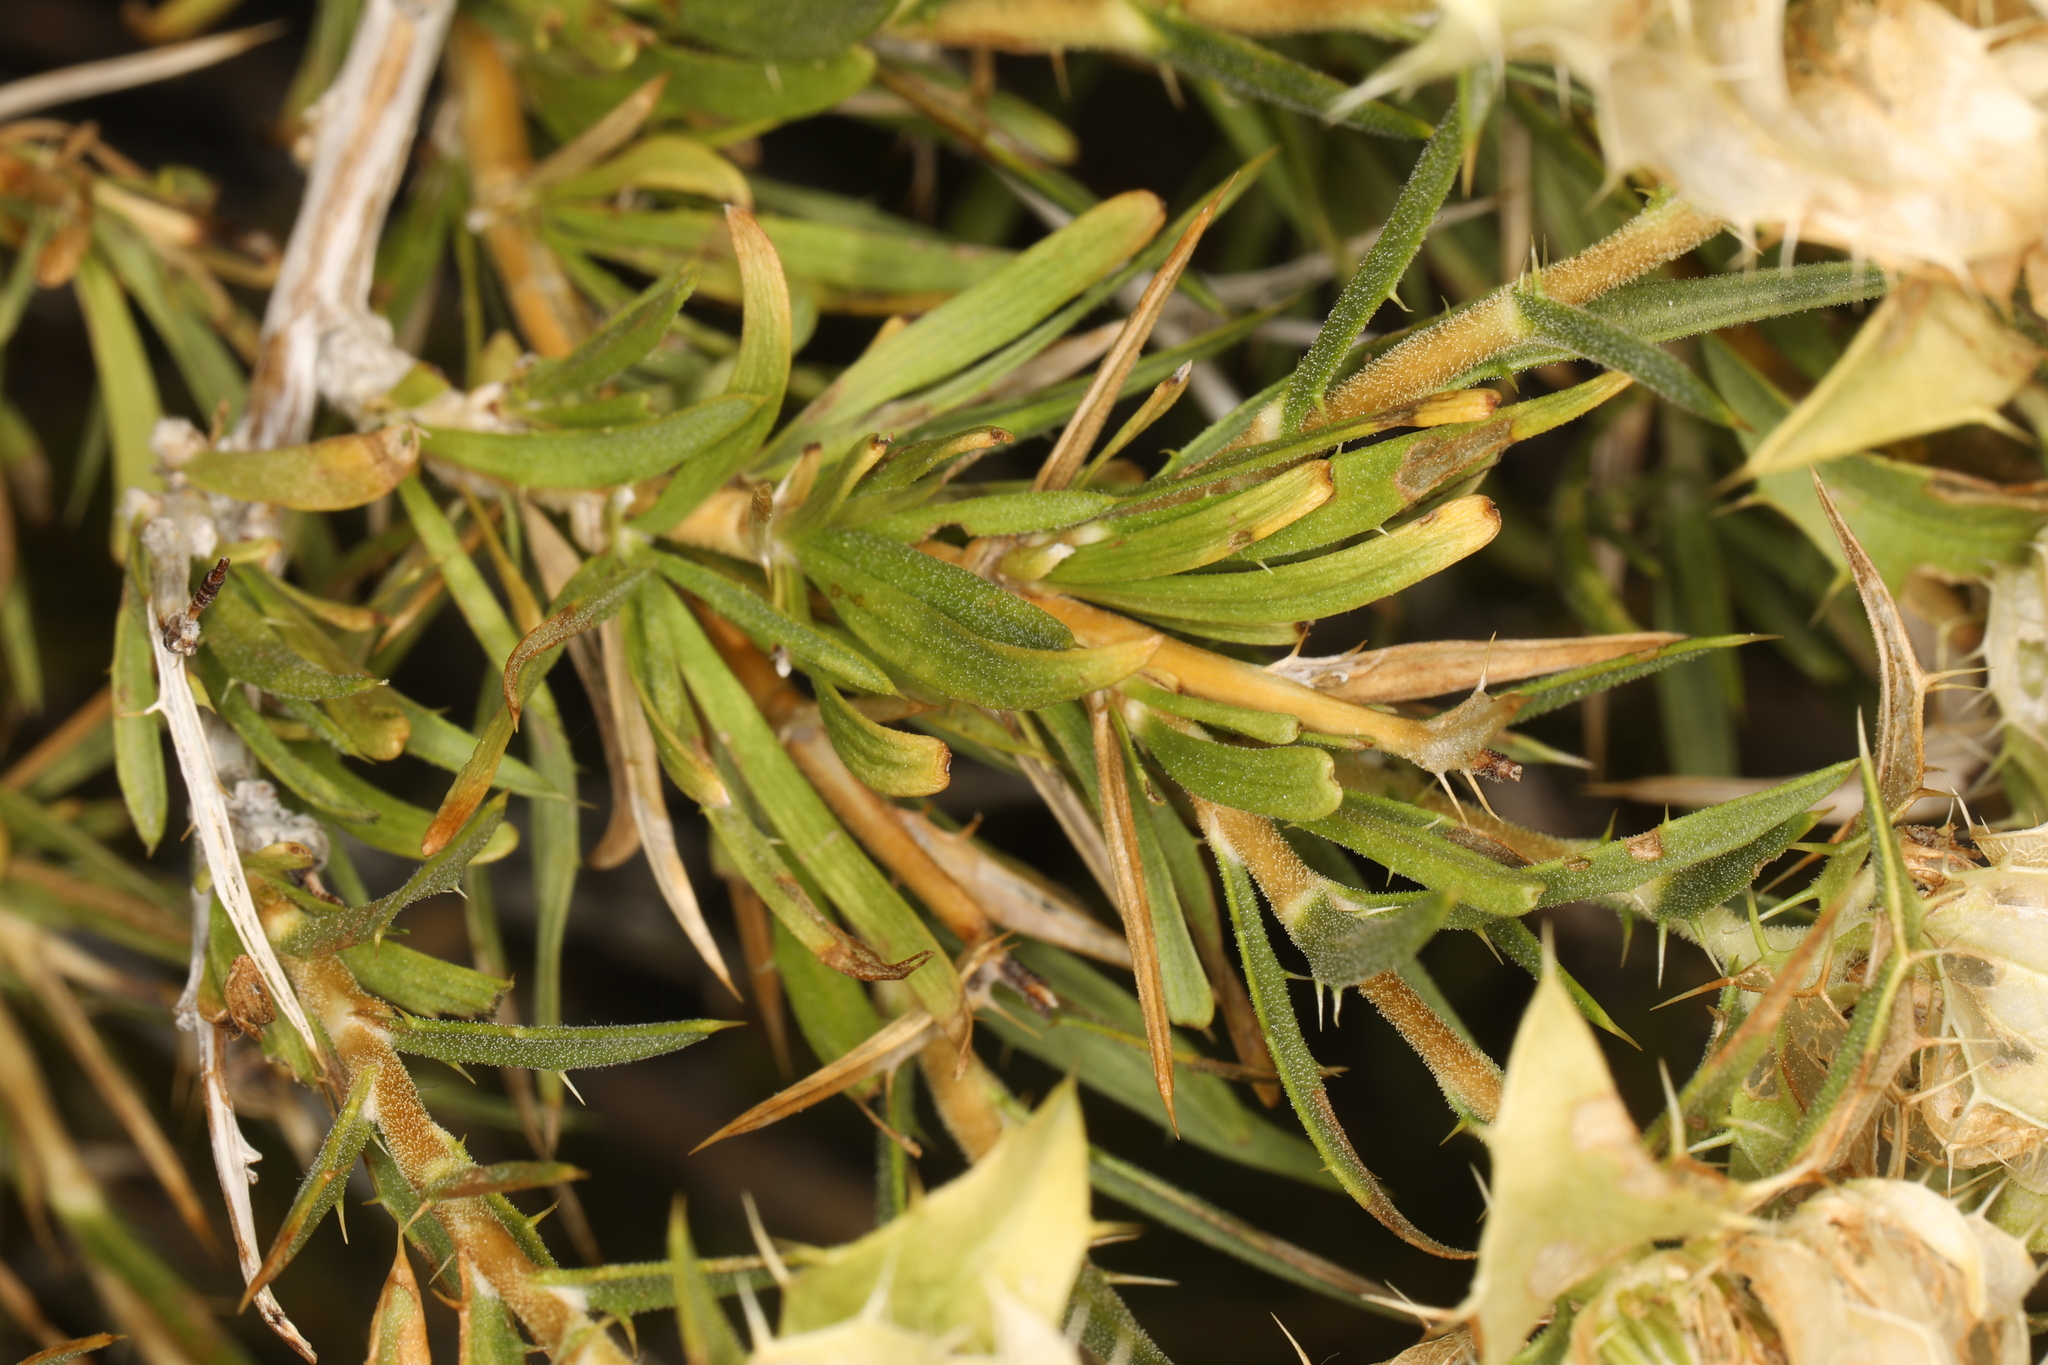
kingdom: Plantae
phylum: Tracheophyta
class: Magnoliopsida
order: Asterales
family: Asteraceae
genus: Hecastocleis
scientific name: Hecastocleis shockleyi
